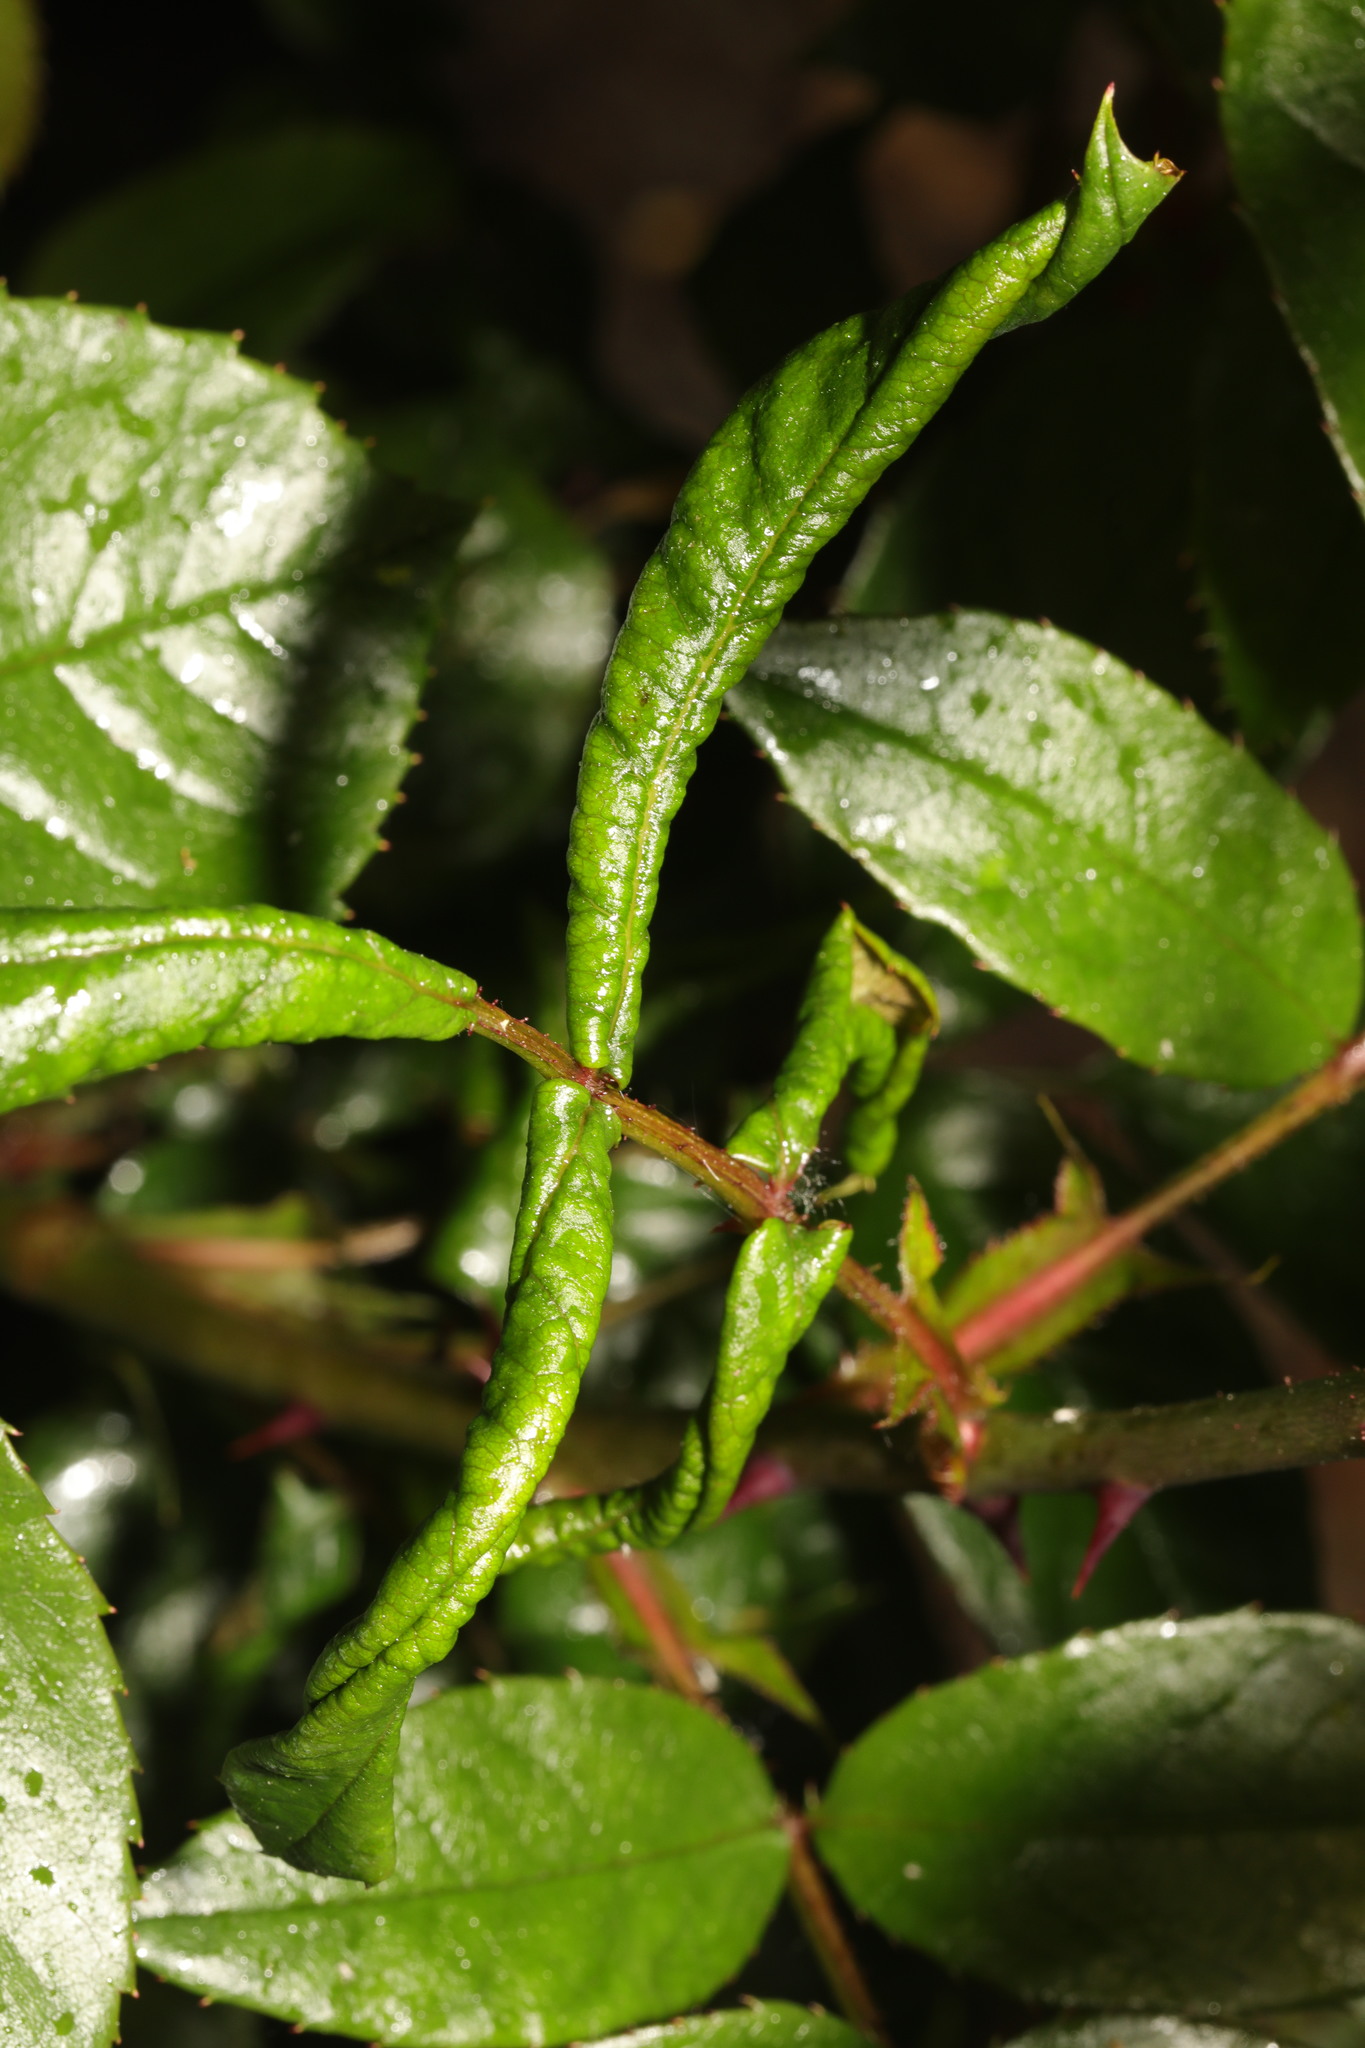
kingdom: Animalia
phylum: Arthropoda
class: Insecta
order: Hymenoptera
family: Tenthredinidae
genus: Blennocampa
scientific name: Blennocampa phyllocolpa
